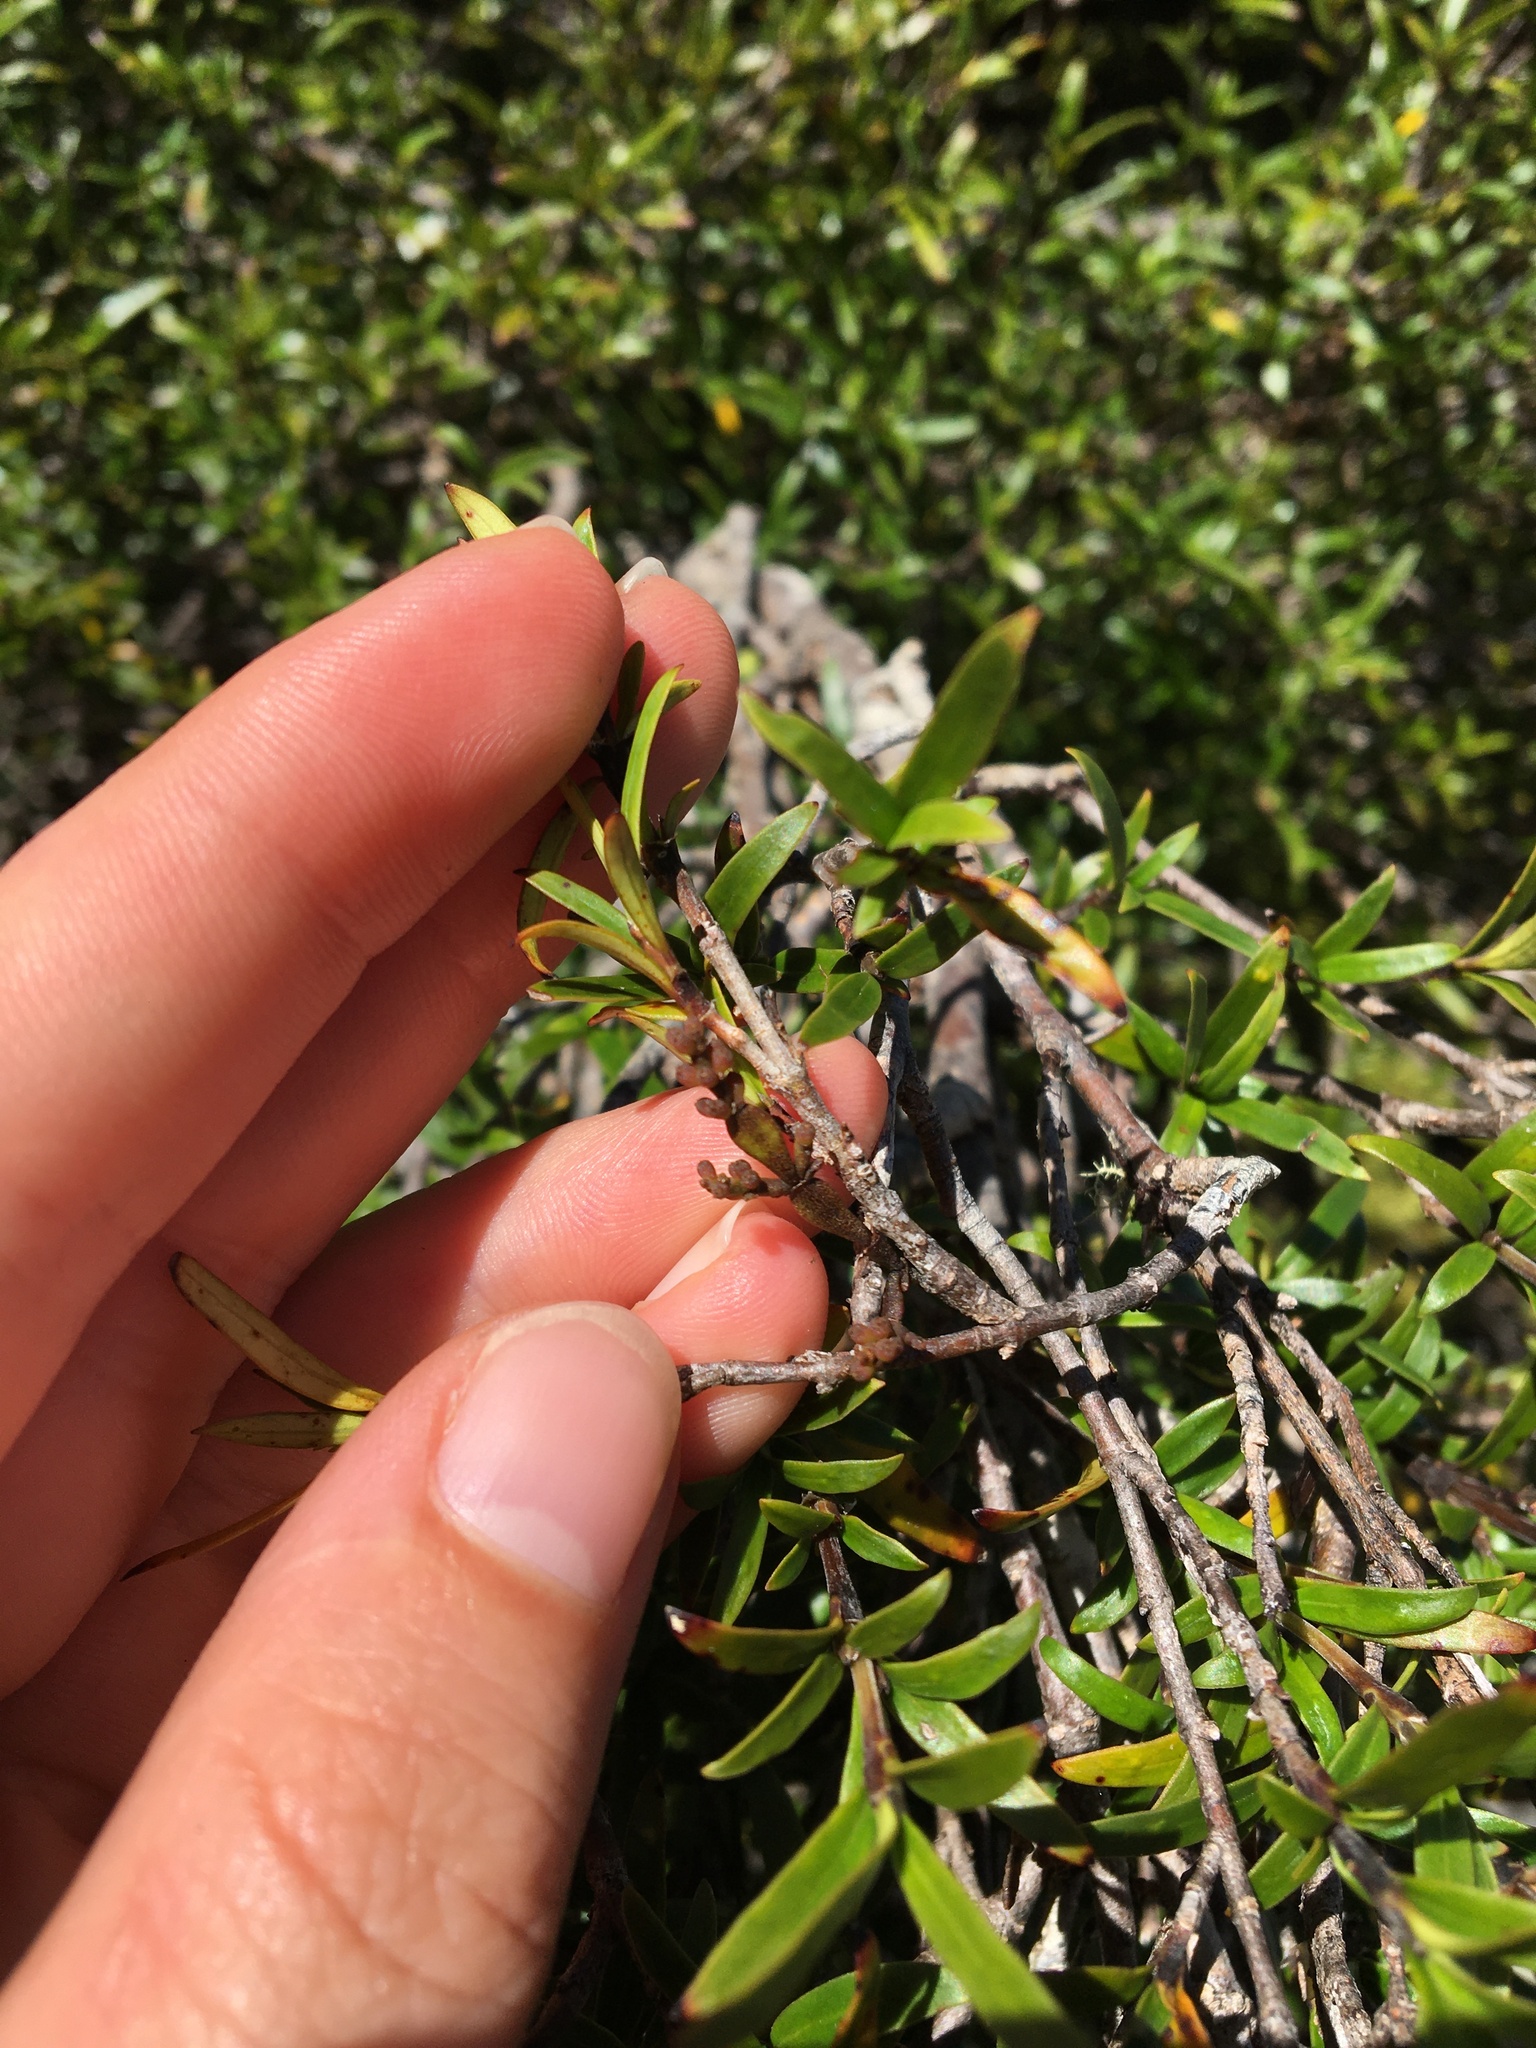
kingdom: Plantae
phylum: Tracheophyta
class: Magnoliopsida
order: Santalales
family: Viscaceae
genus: Korthalsella
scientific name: Korthalsella clavata
